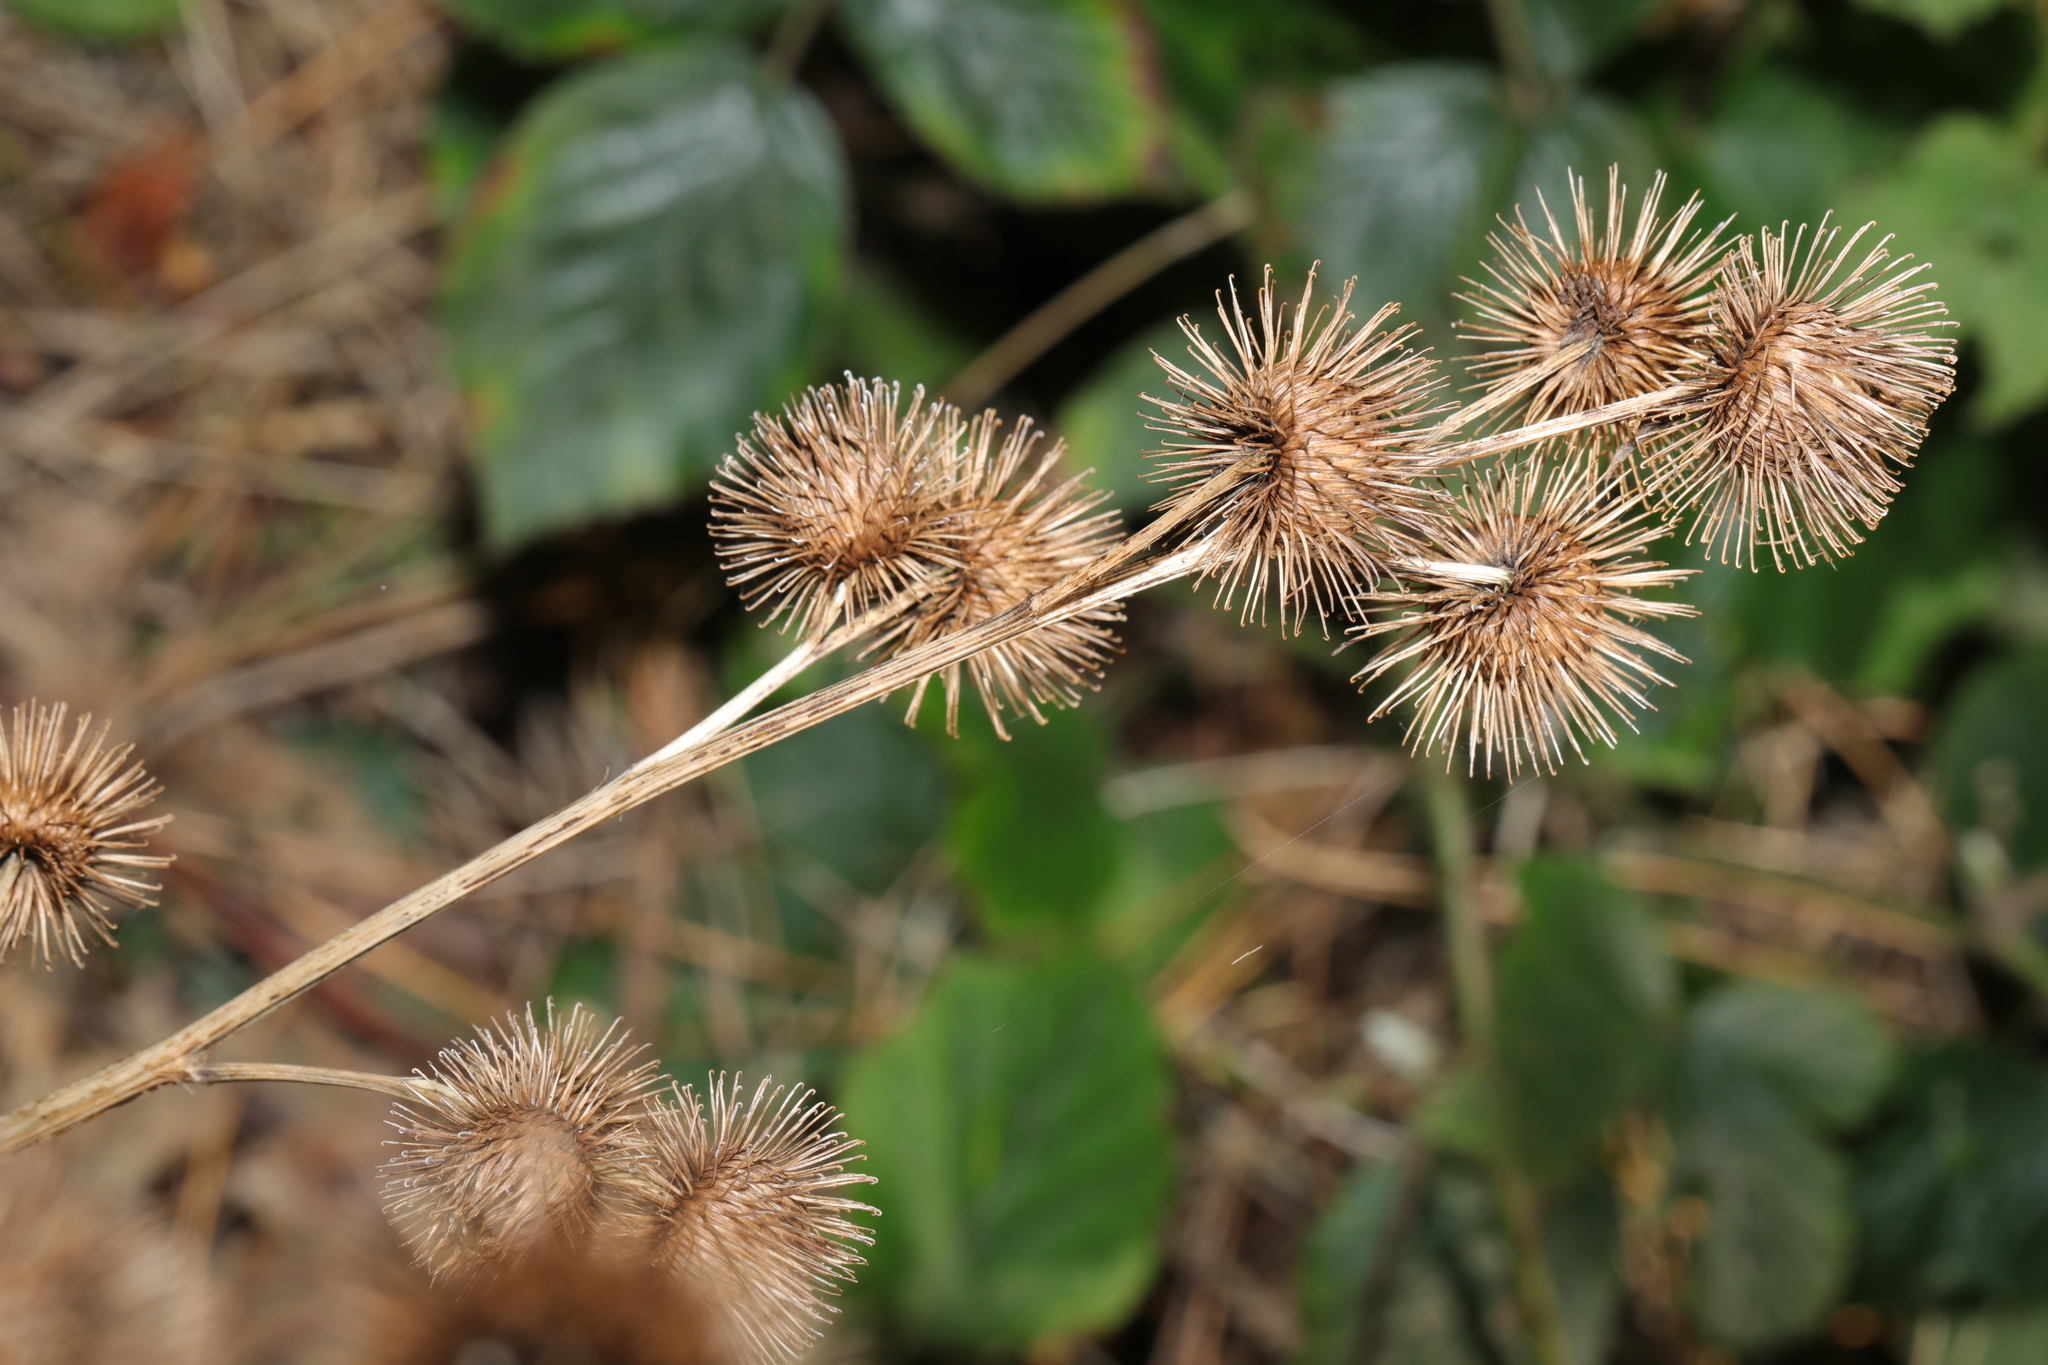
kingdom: Plantae
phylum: Tracheophyta
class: Magnoliopsida
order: Asterales
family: Asteraceae
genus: Arctium
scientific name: Arctium minus
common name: Lesser burdock
